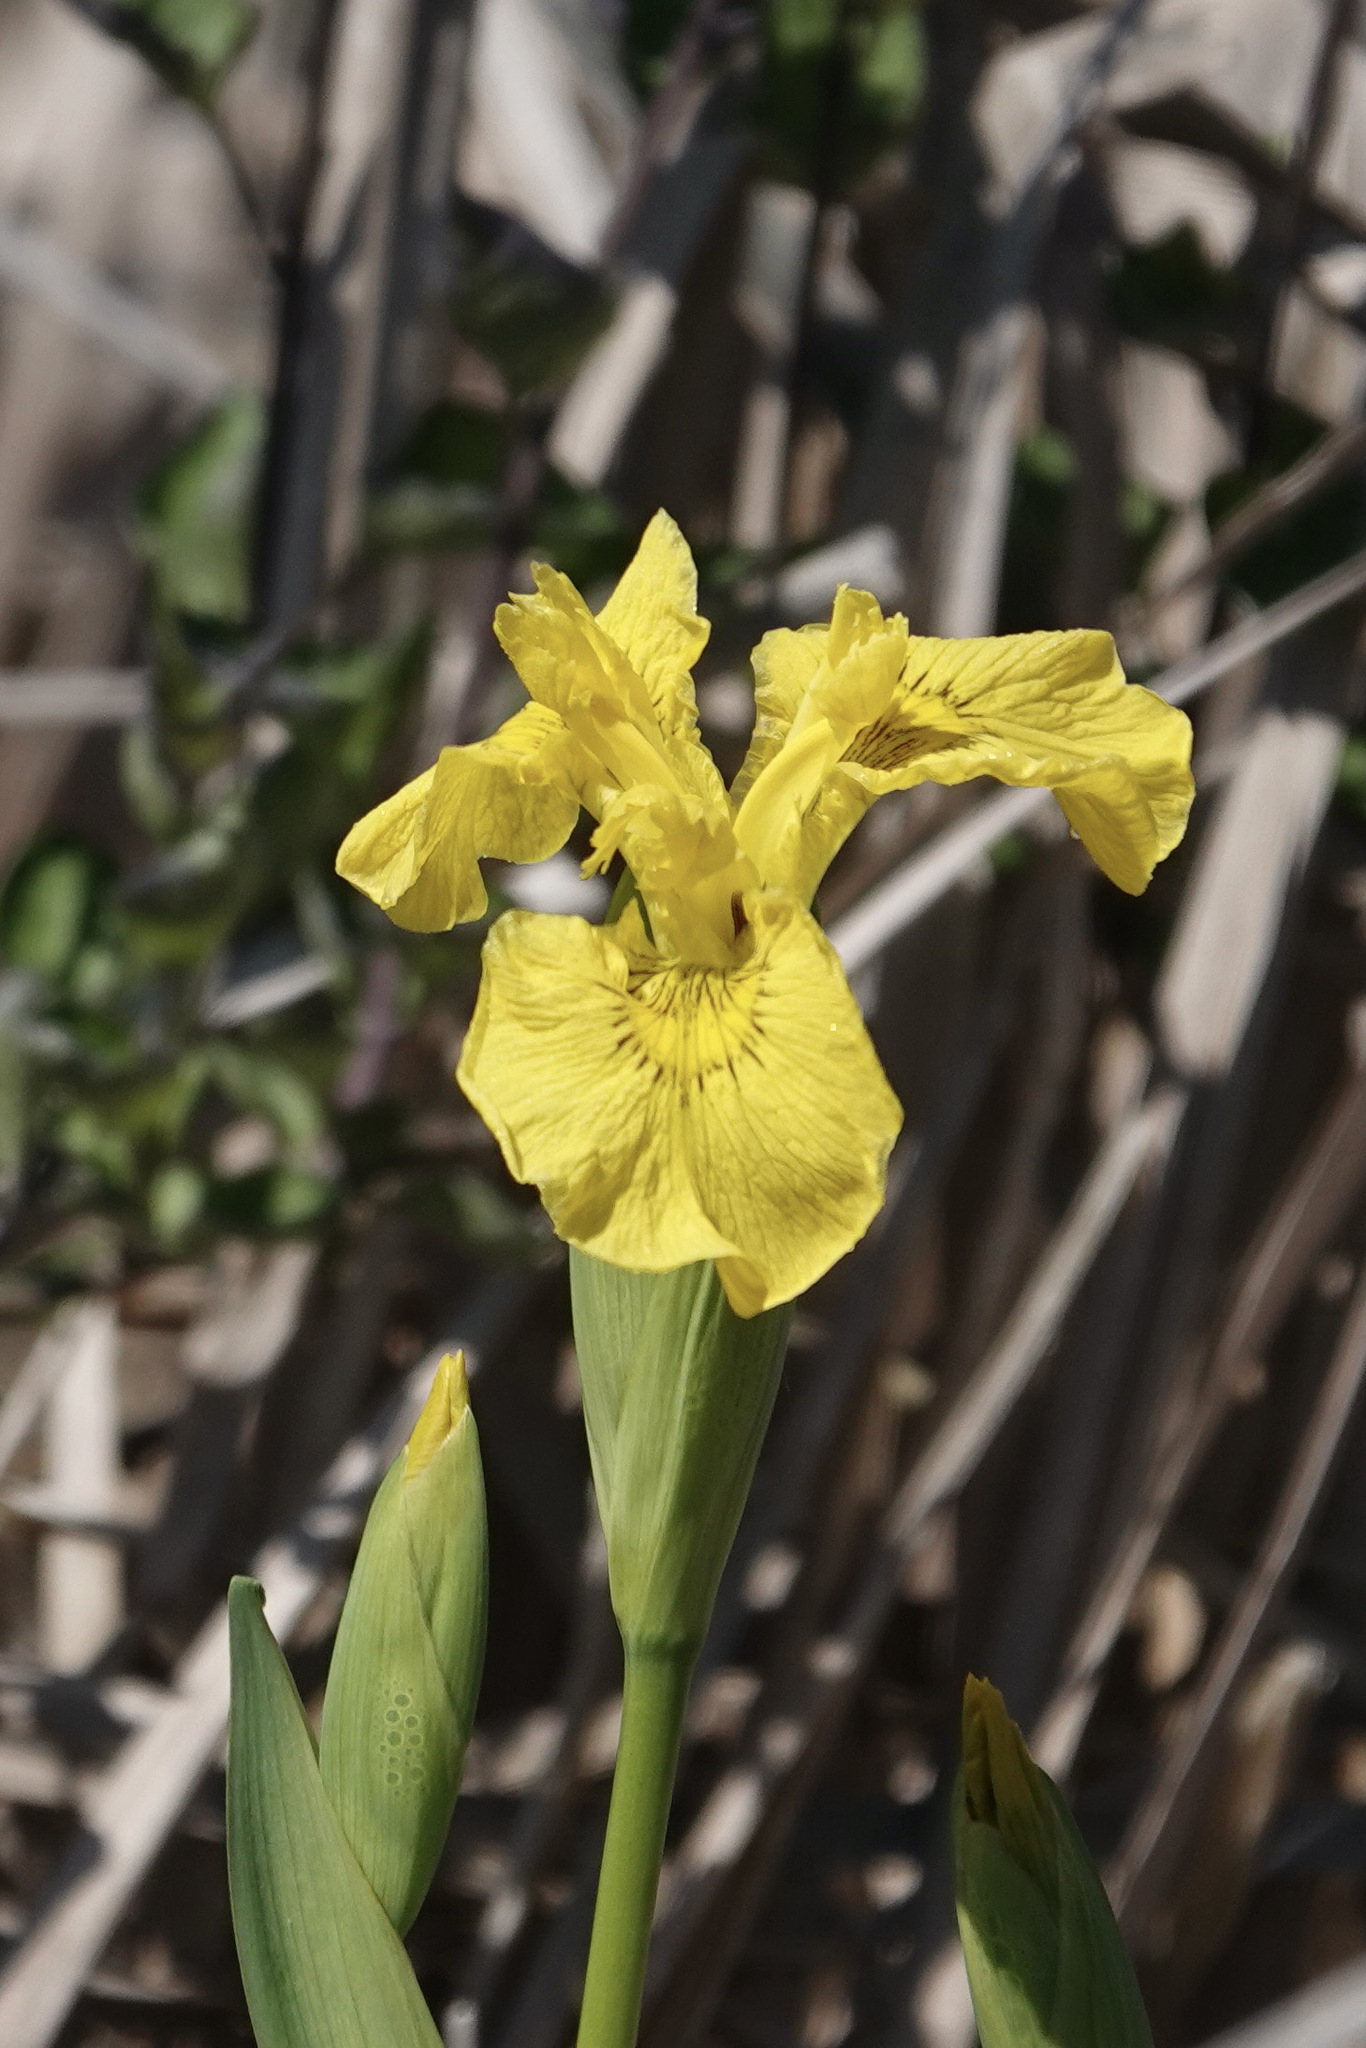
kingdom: Plantae
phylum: Tracheophyta
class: Liliopsida
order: Asparagales
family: Iridaceae
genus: Iris
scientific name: Iris pseudacorus
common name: Yellow flag
